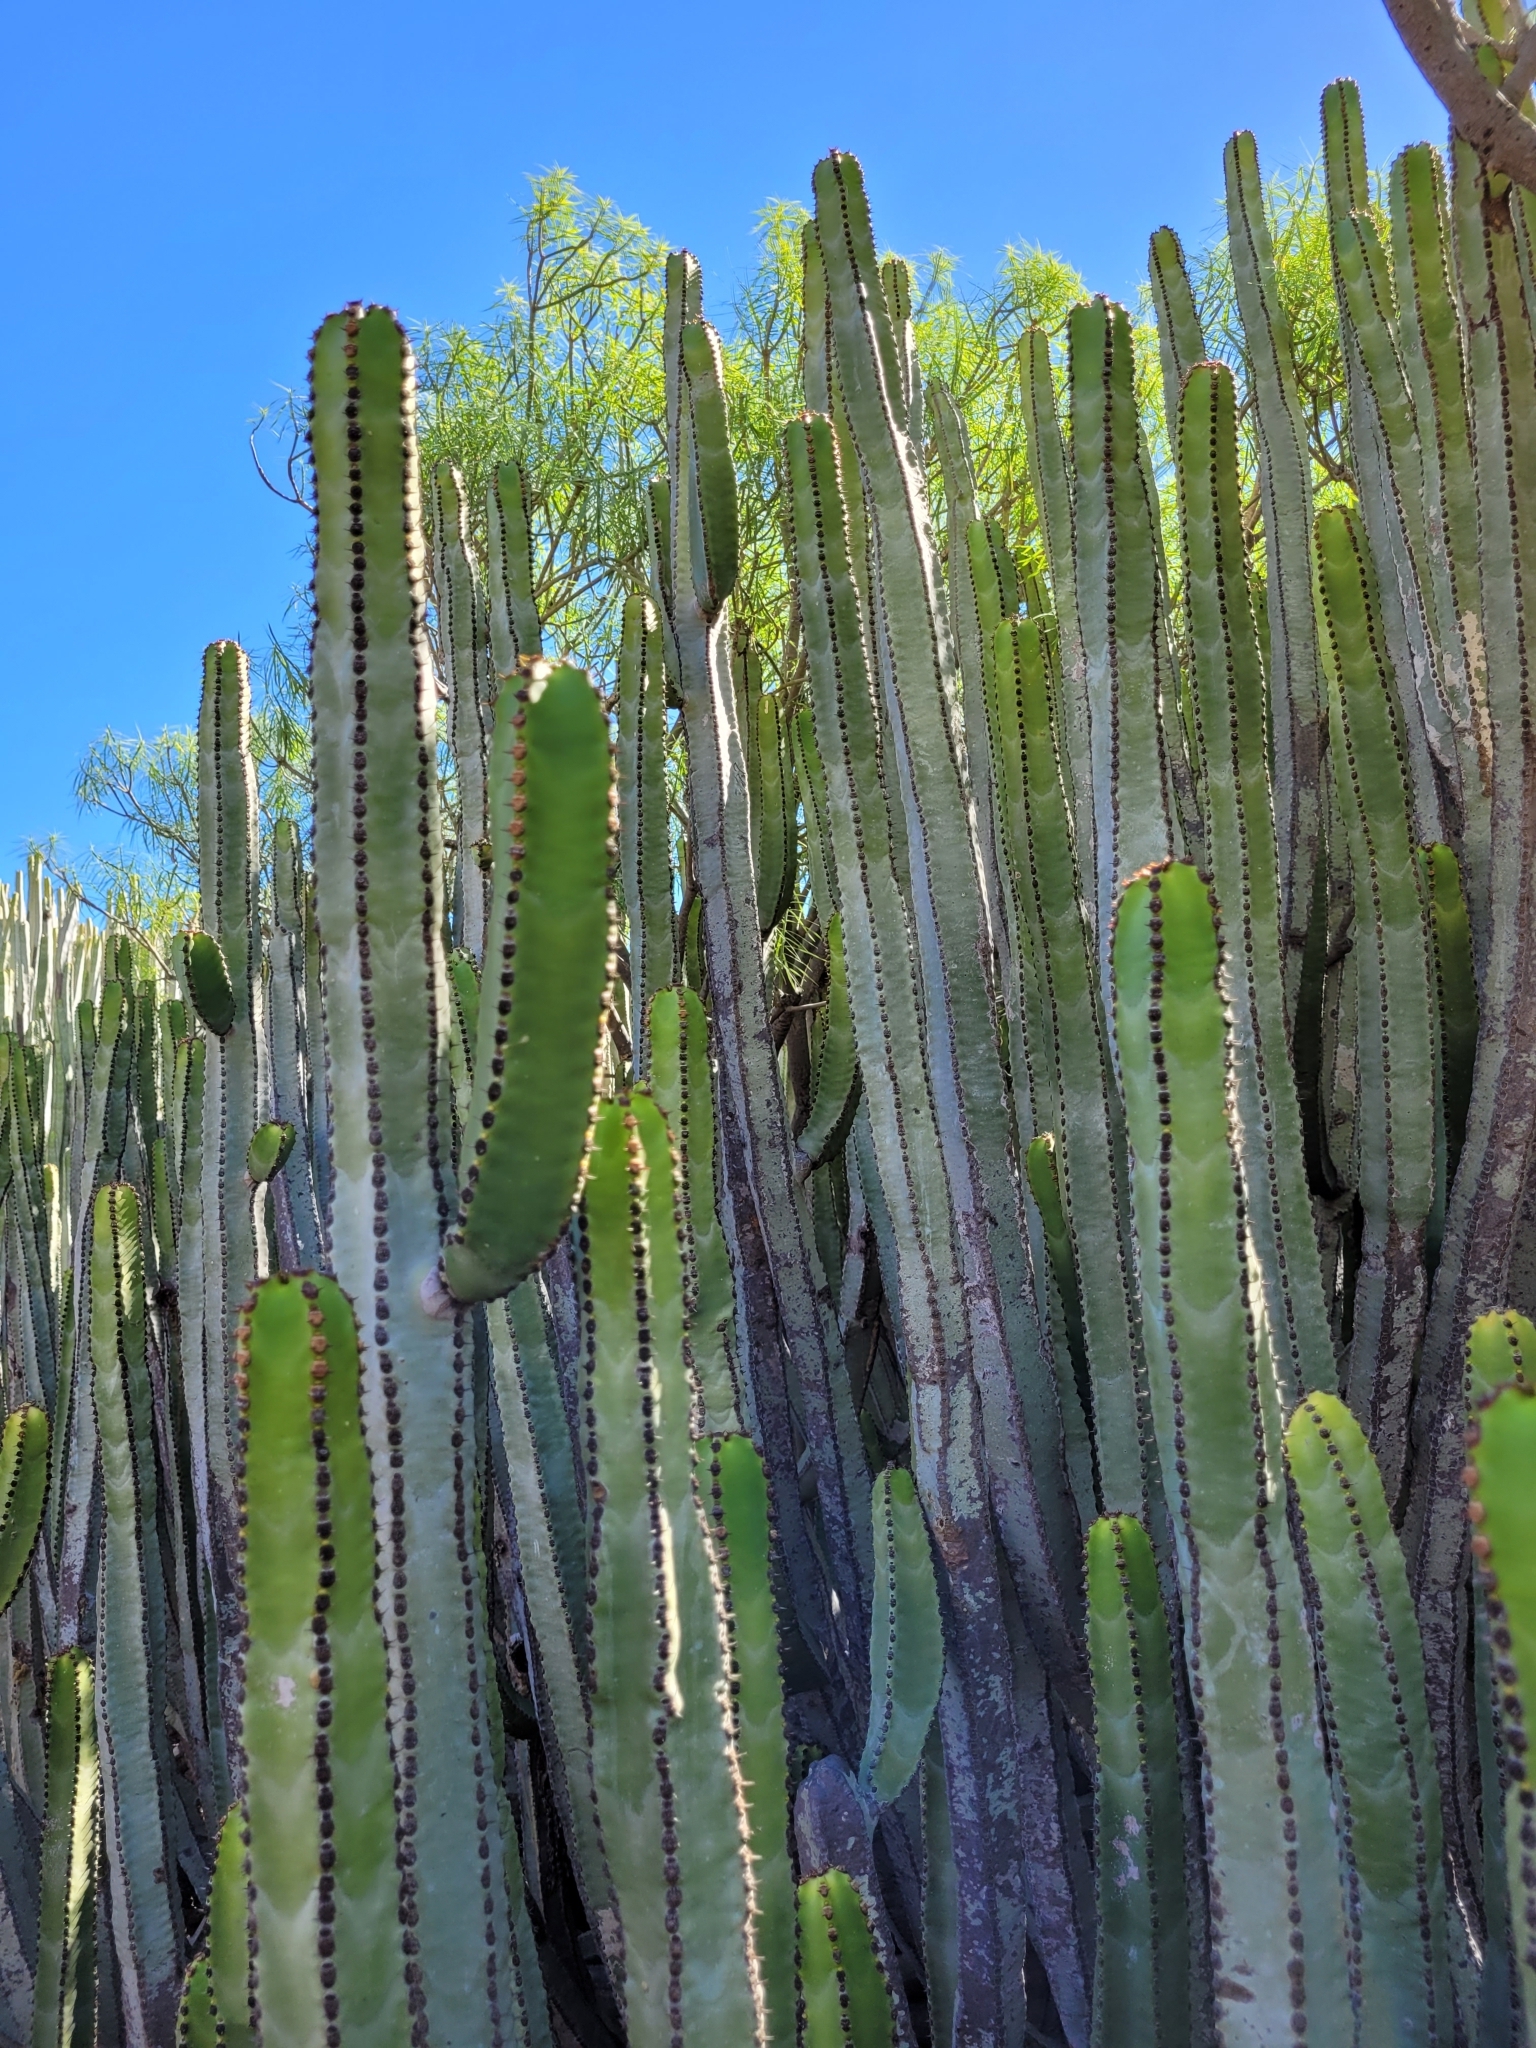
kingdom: Plantae
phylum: Tracheophyta
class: Magnoliopsida
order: Malpighiales
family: Euphorbiaceae
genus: Euphorbia
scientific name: Euphorbia canariensis
